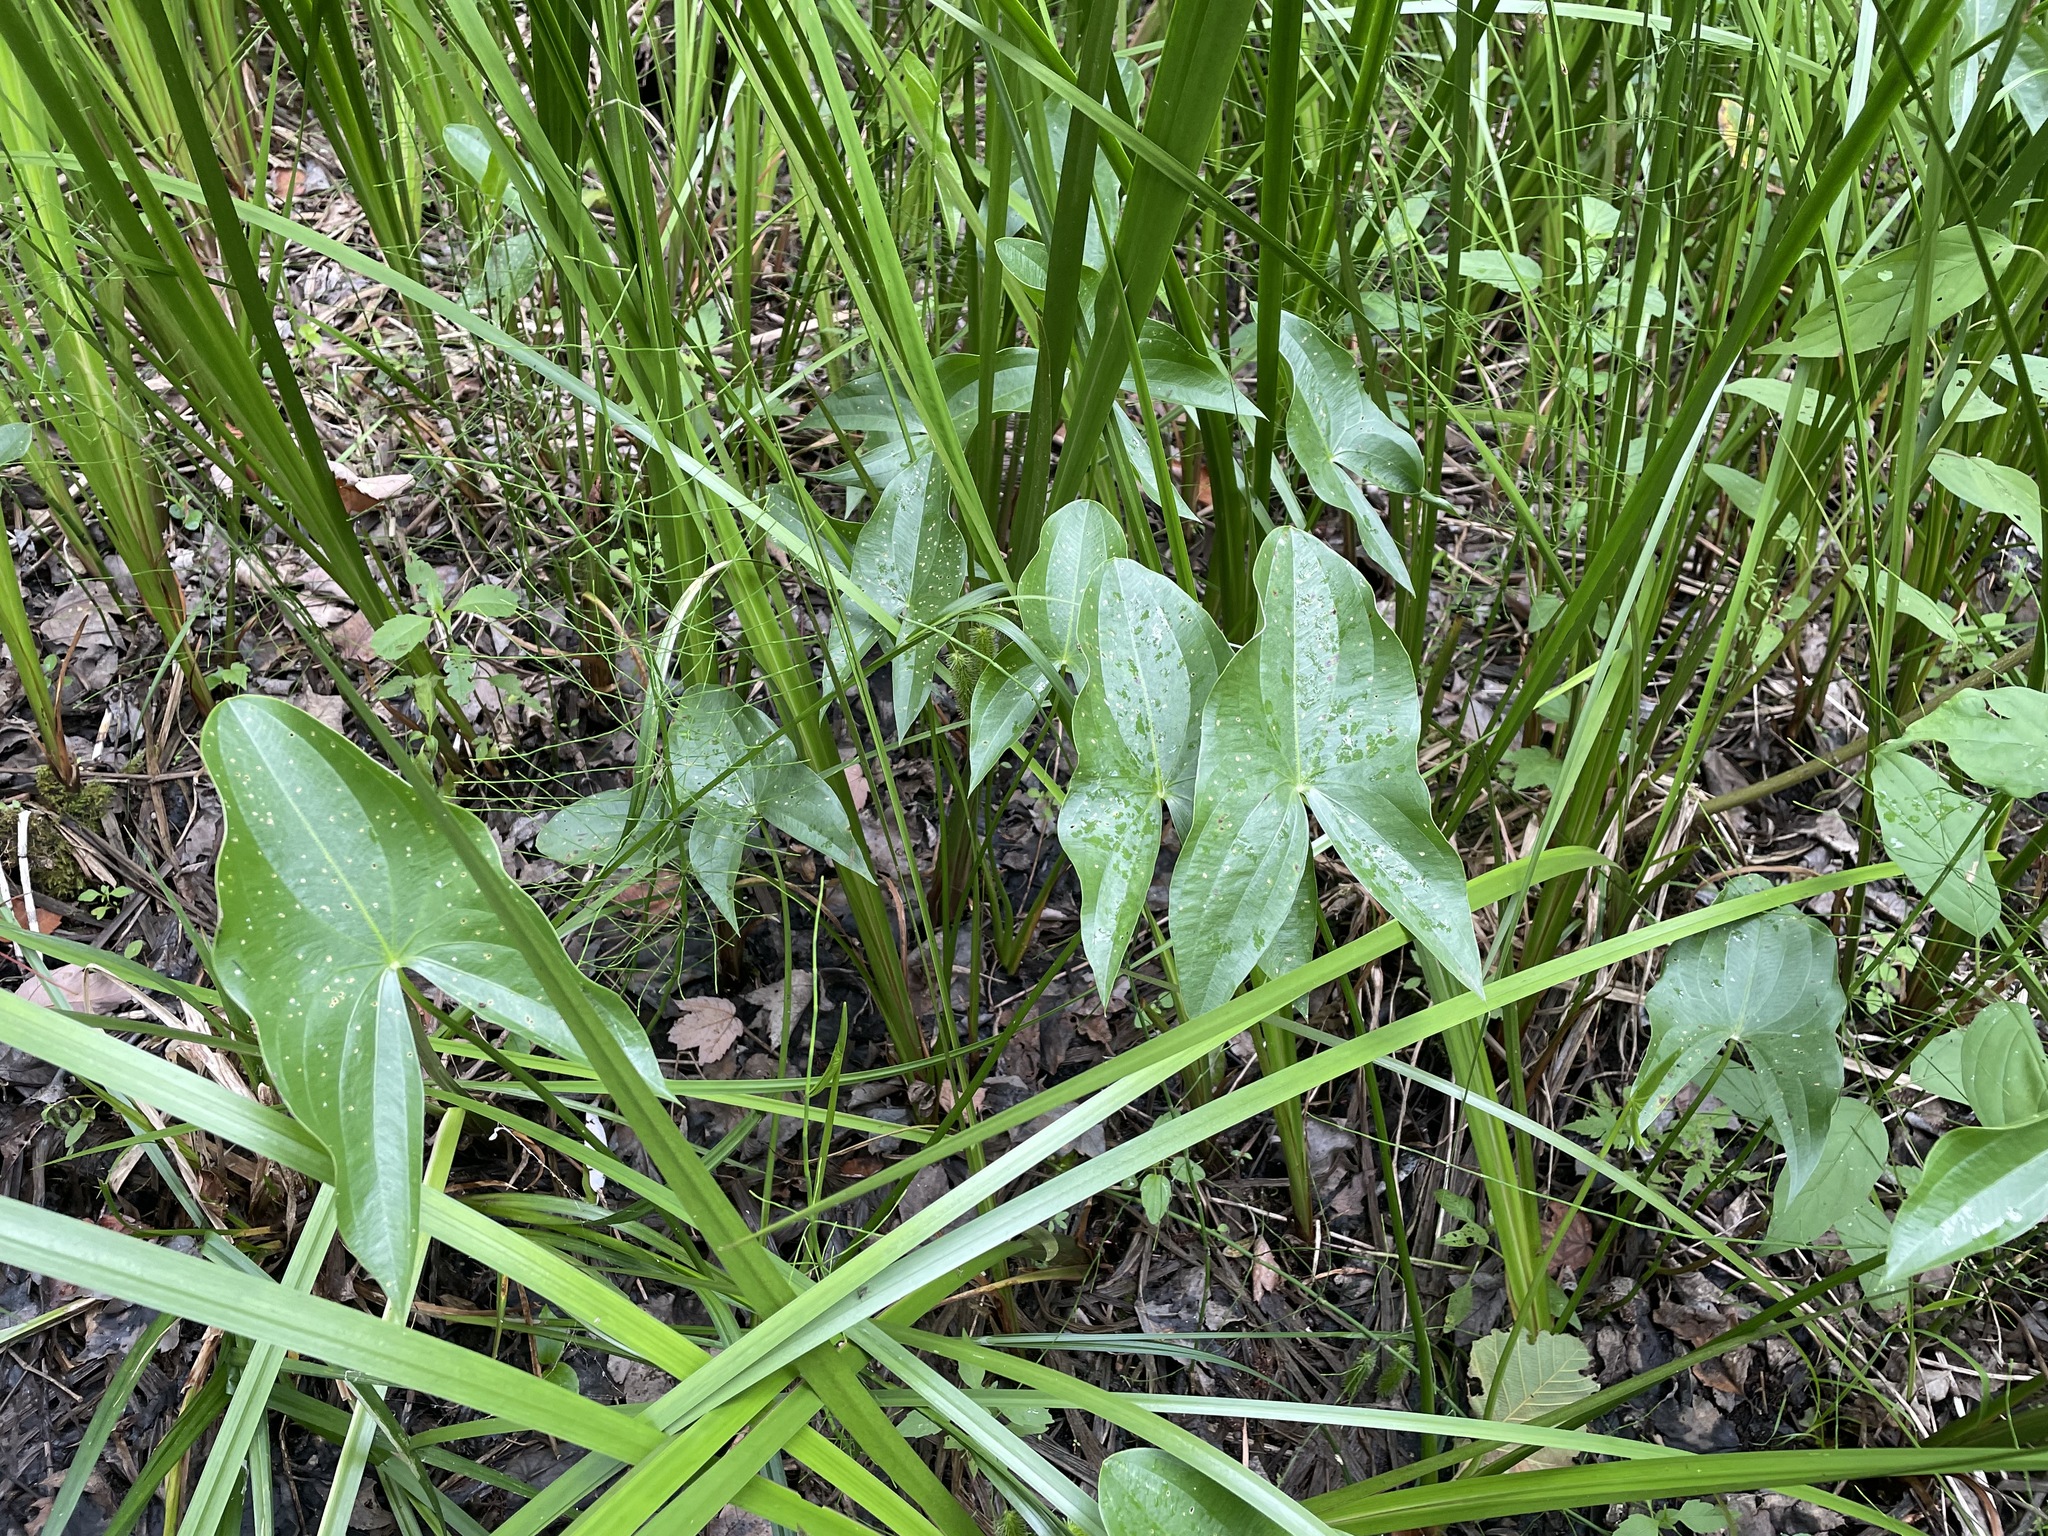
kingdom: Plantae
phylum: Tracheophyta
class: Liliopsida
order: Alismatales
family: Alismataceae
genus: Sagittaria
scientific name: Sagittaria latifolia
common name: Duck-potato
